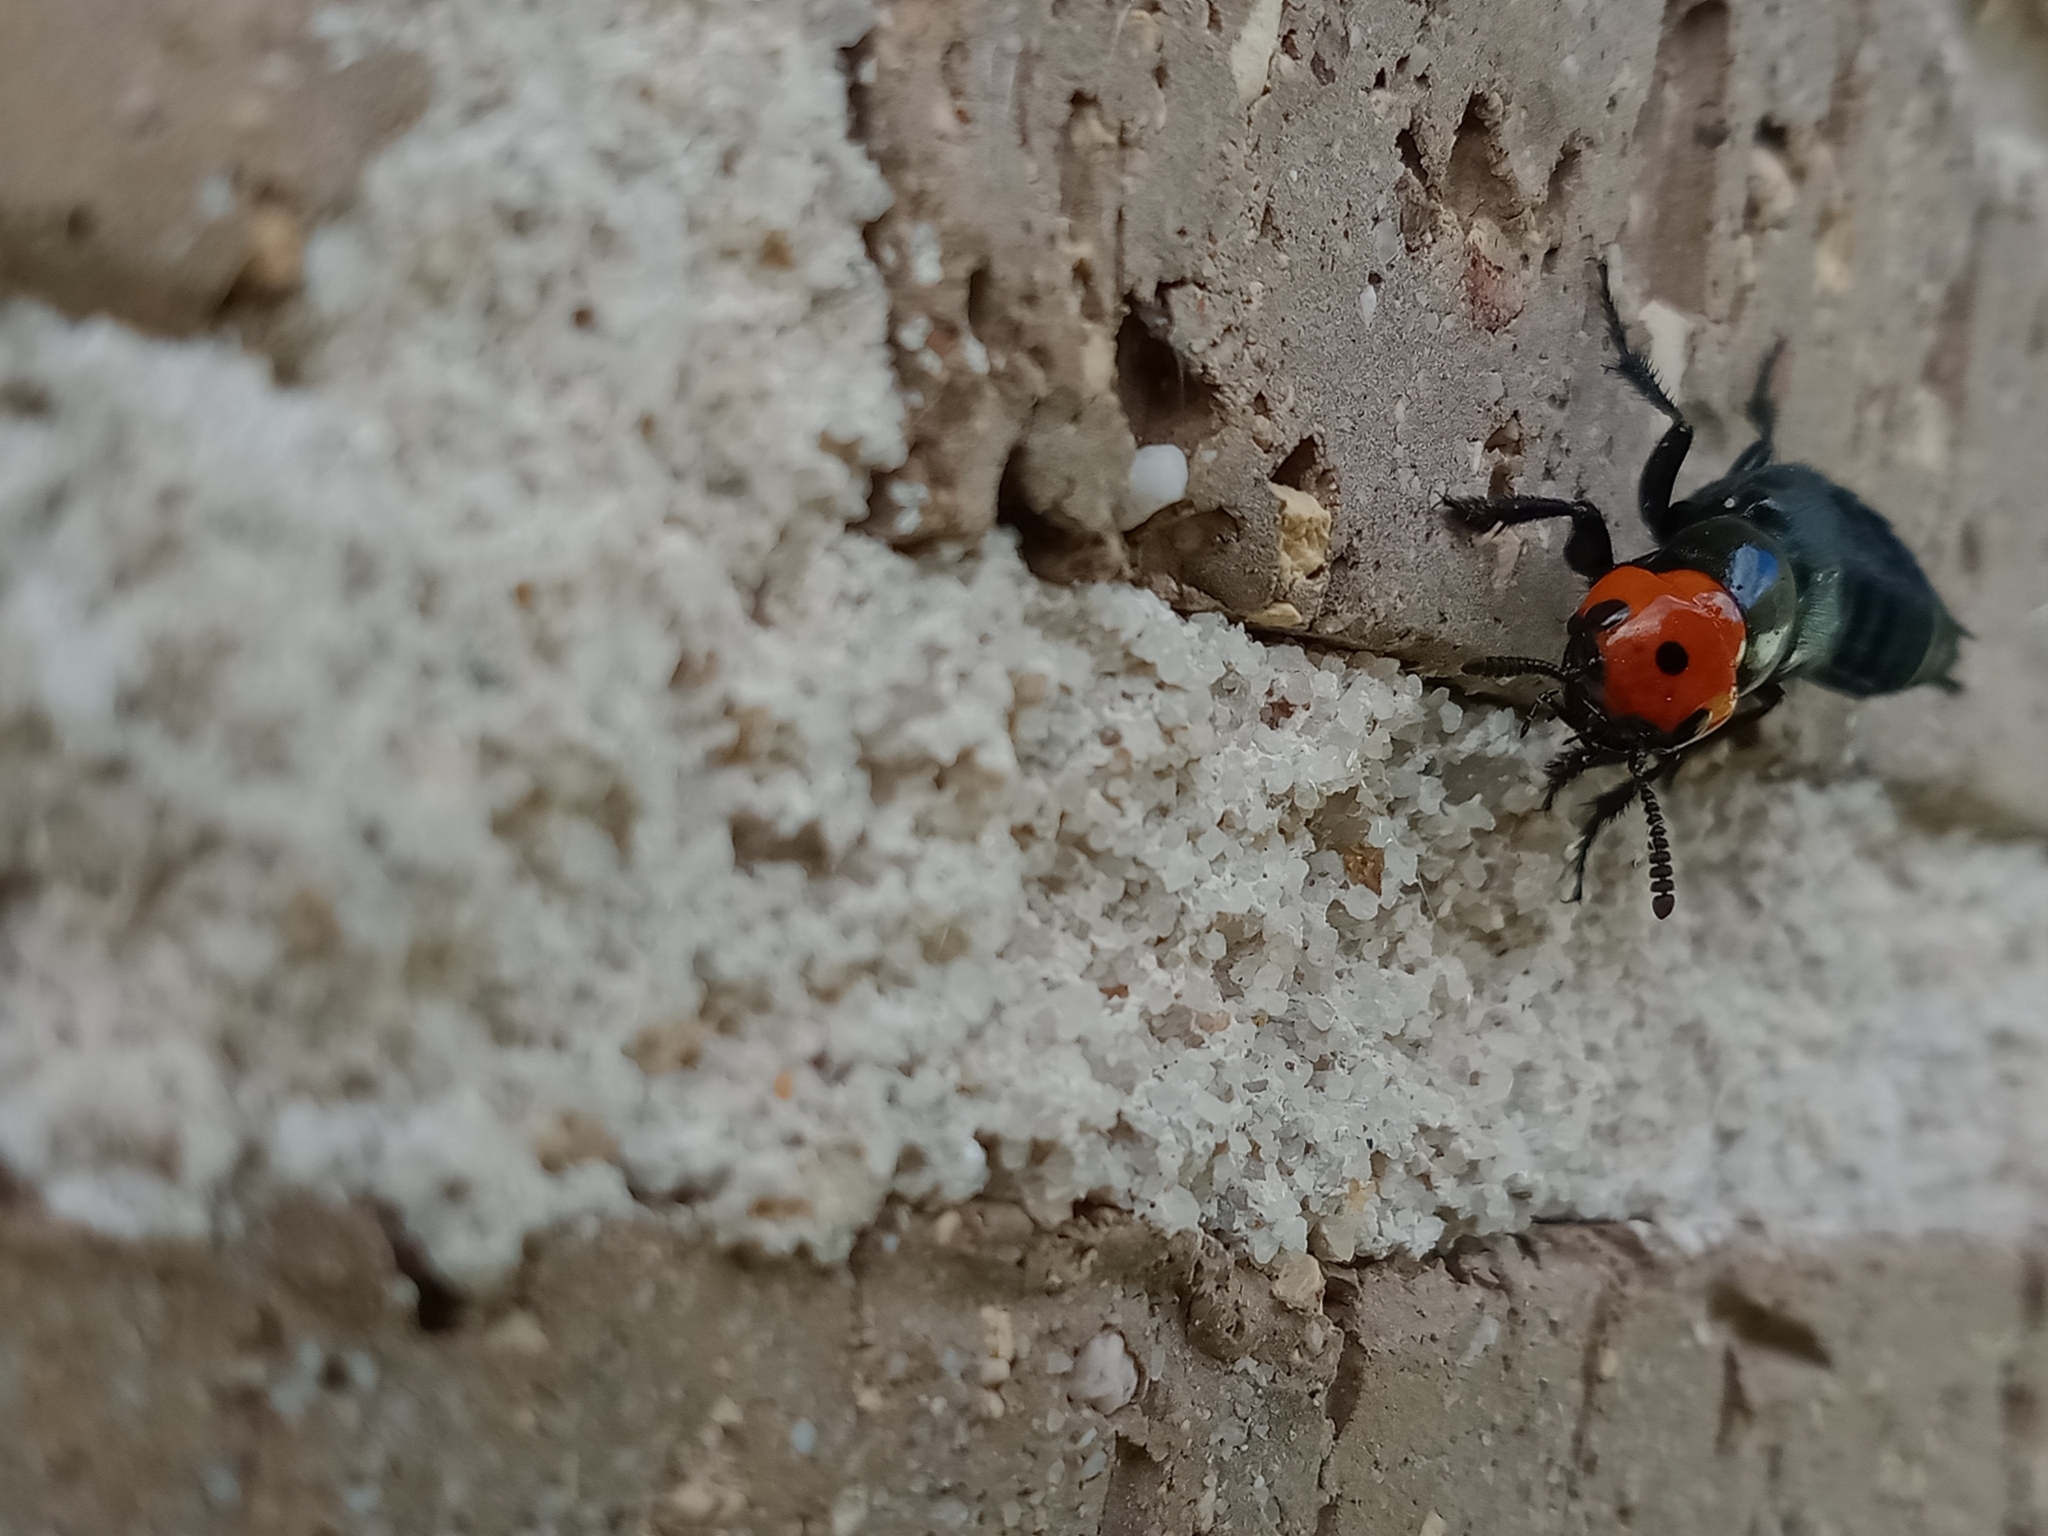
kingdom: Animalia
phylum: Arthropoda
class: Insecta
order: Coleoptera
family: Staphylinidae
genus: Creophilus
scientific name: Creophilus erythrocephalus
